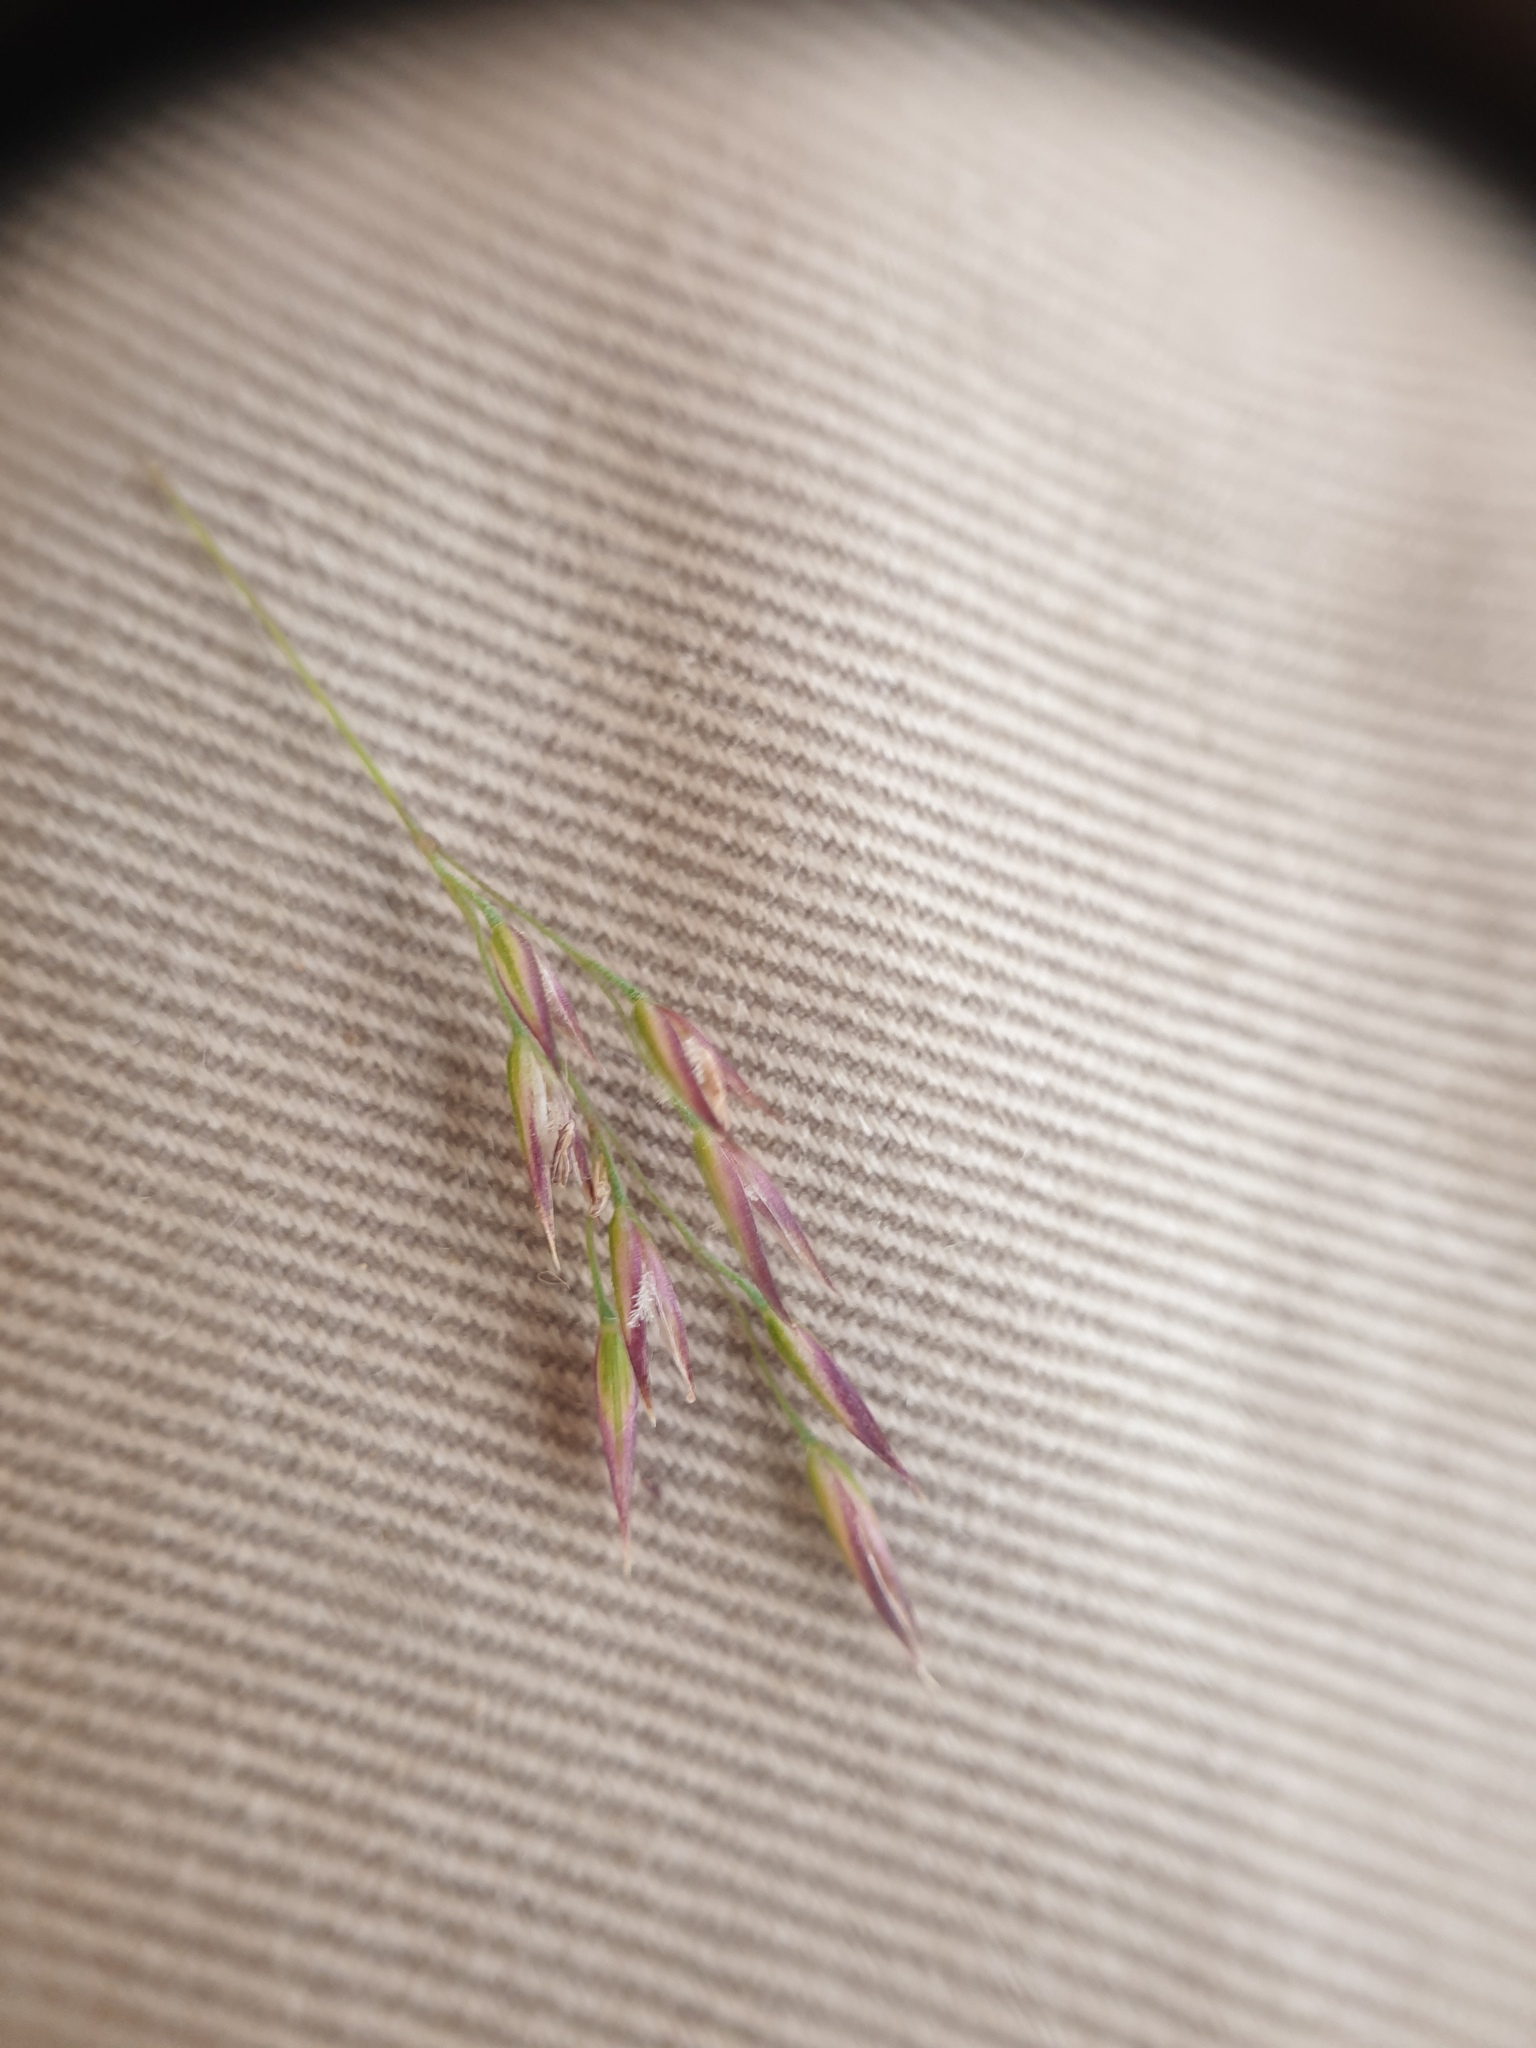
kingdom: Plantae
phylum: Tracheophyta
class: Liliopsida
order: Poales
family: Poaceae
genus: Calamagrostis
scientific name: Calamagrostis canadensis
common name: Canada bluejoint
